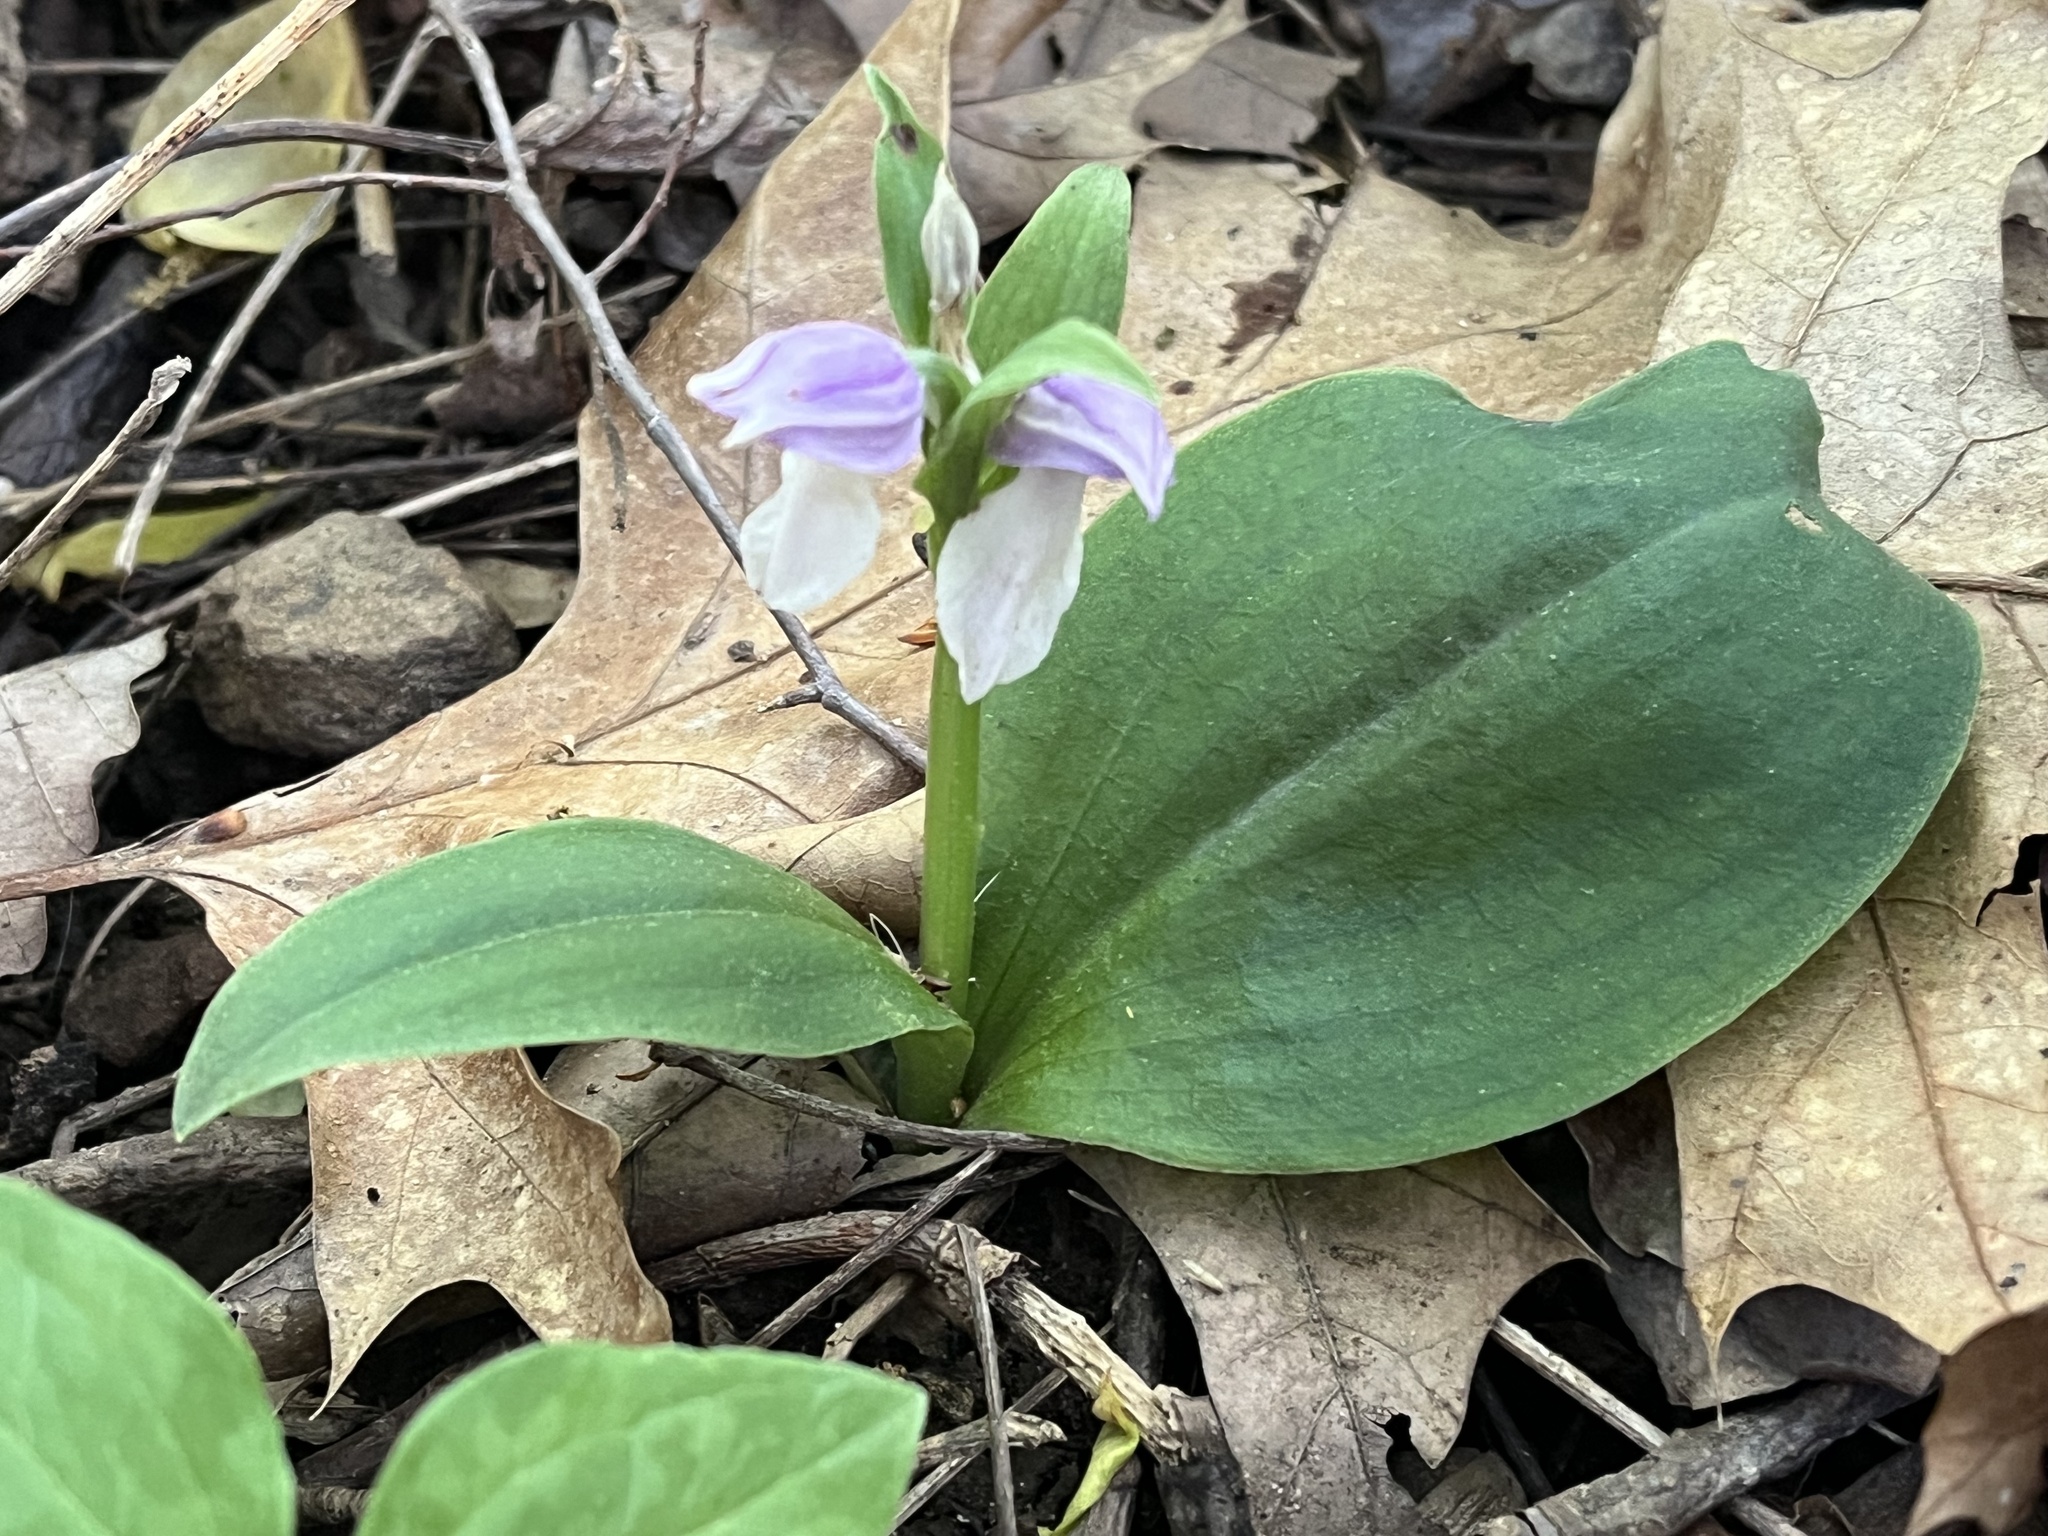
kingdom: Plantae
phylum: Tracheophyta
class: Liliopsida
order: Asparagales
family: Orchidaceae
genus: Galearis
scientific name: Galearis spectabilis
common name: Purple-hooded orchis
